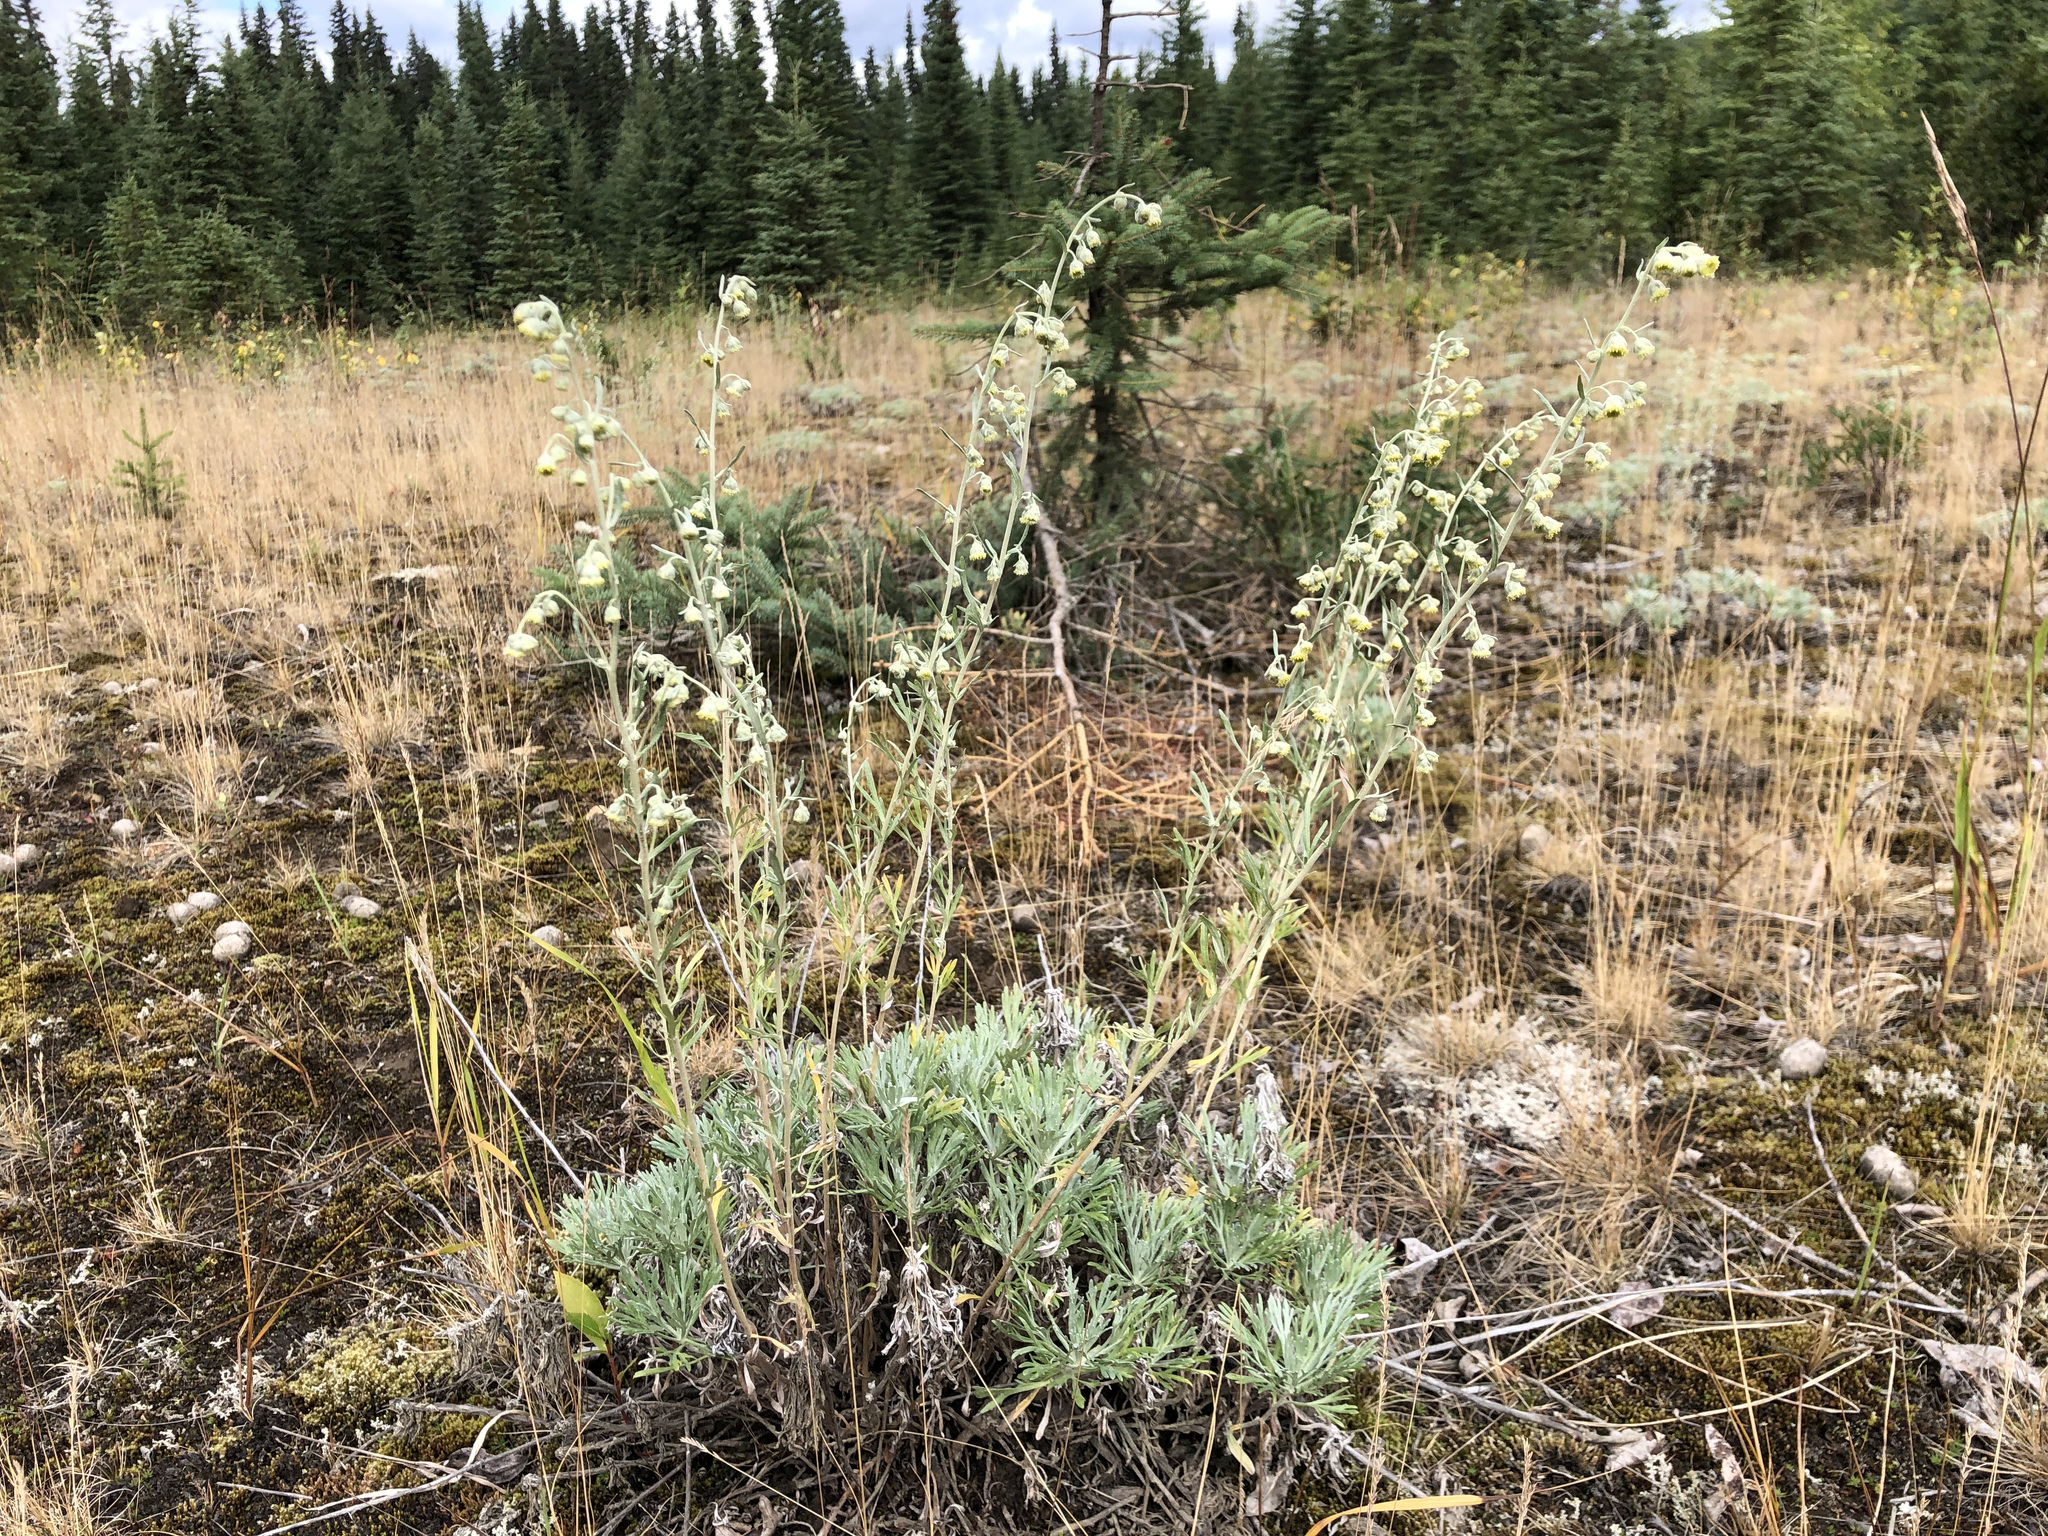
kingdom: Plantae
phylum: Tracheophyta
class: Magnoliopsida
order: Asterales
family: Asteraceae
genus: Artemisia
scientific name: Artemisia kruhsiana
